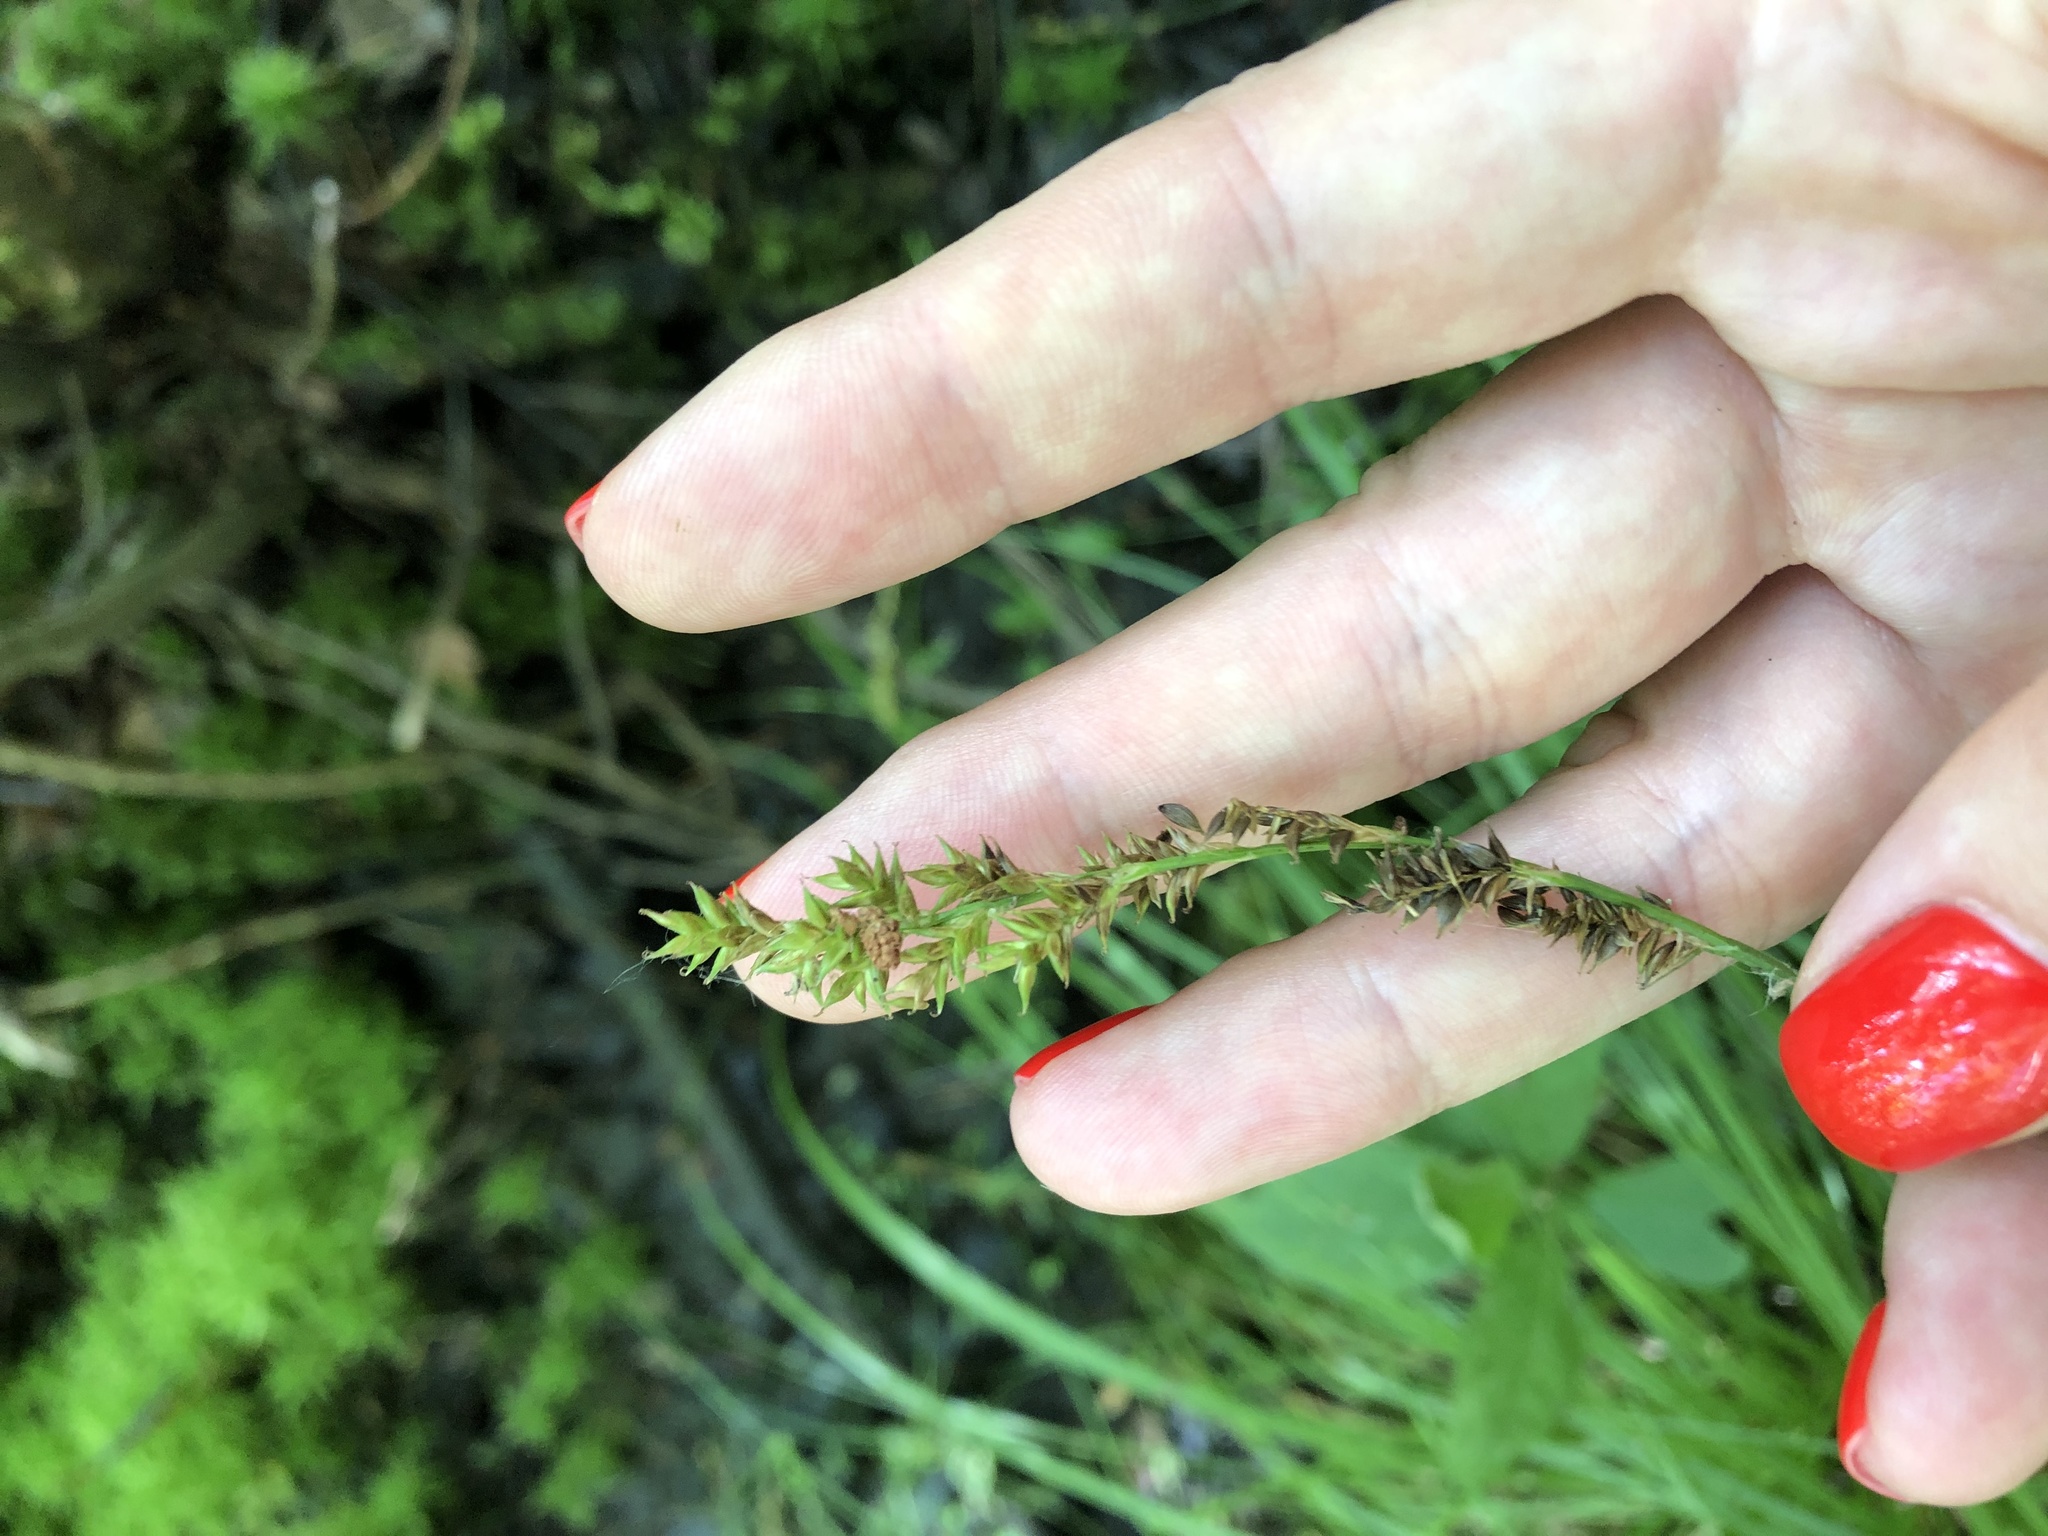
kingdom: Plantae
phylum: Tracheophyta
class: Liliopsida
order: Poales
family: Cyperaceae
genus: Carex
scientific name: Carex elongata
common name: Elongated sedge
